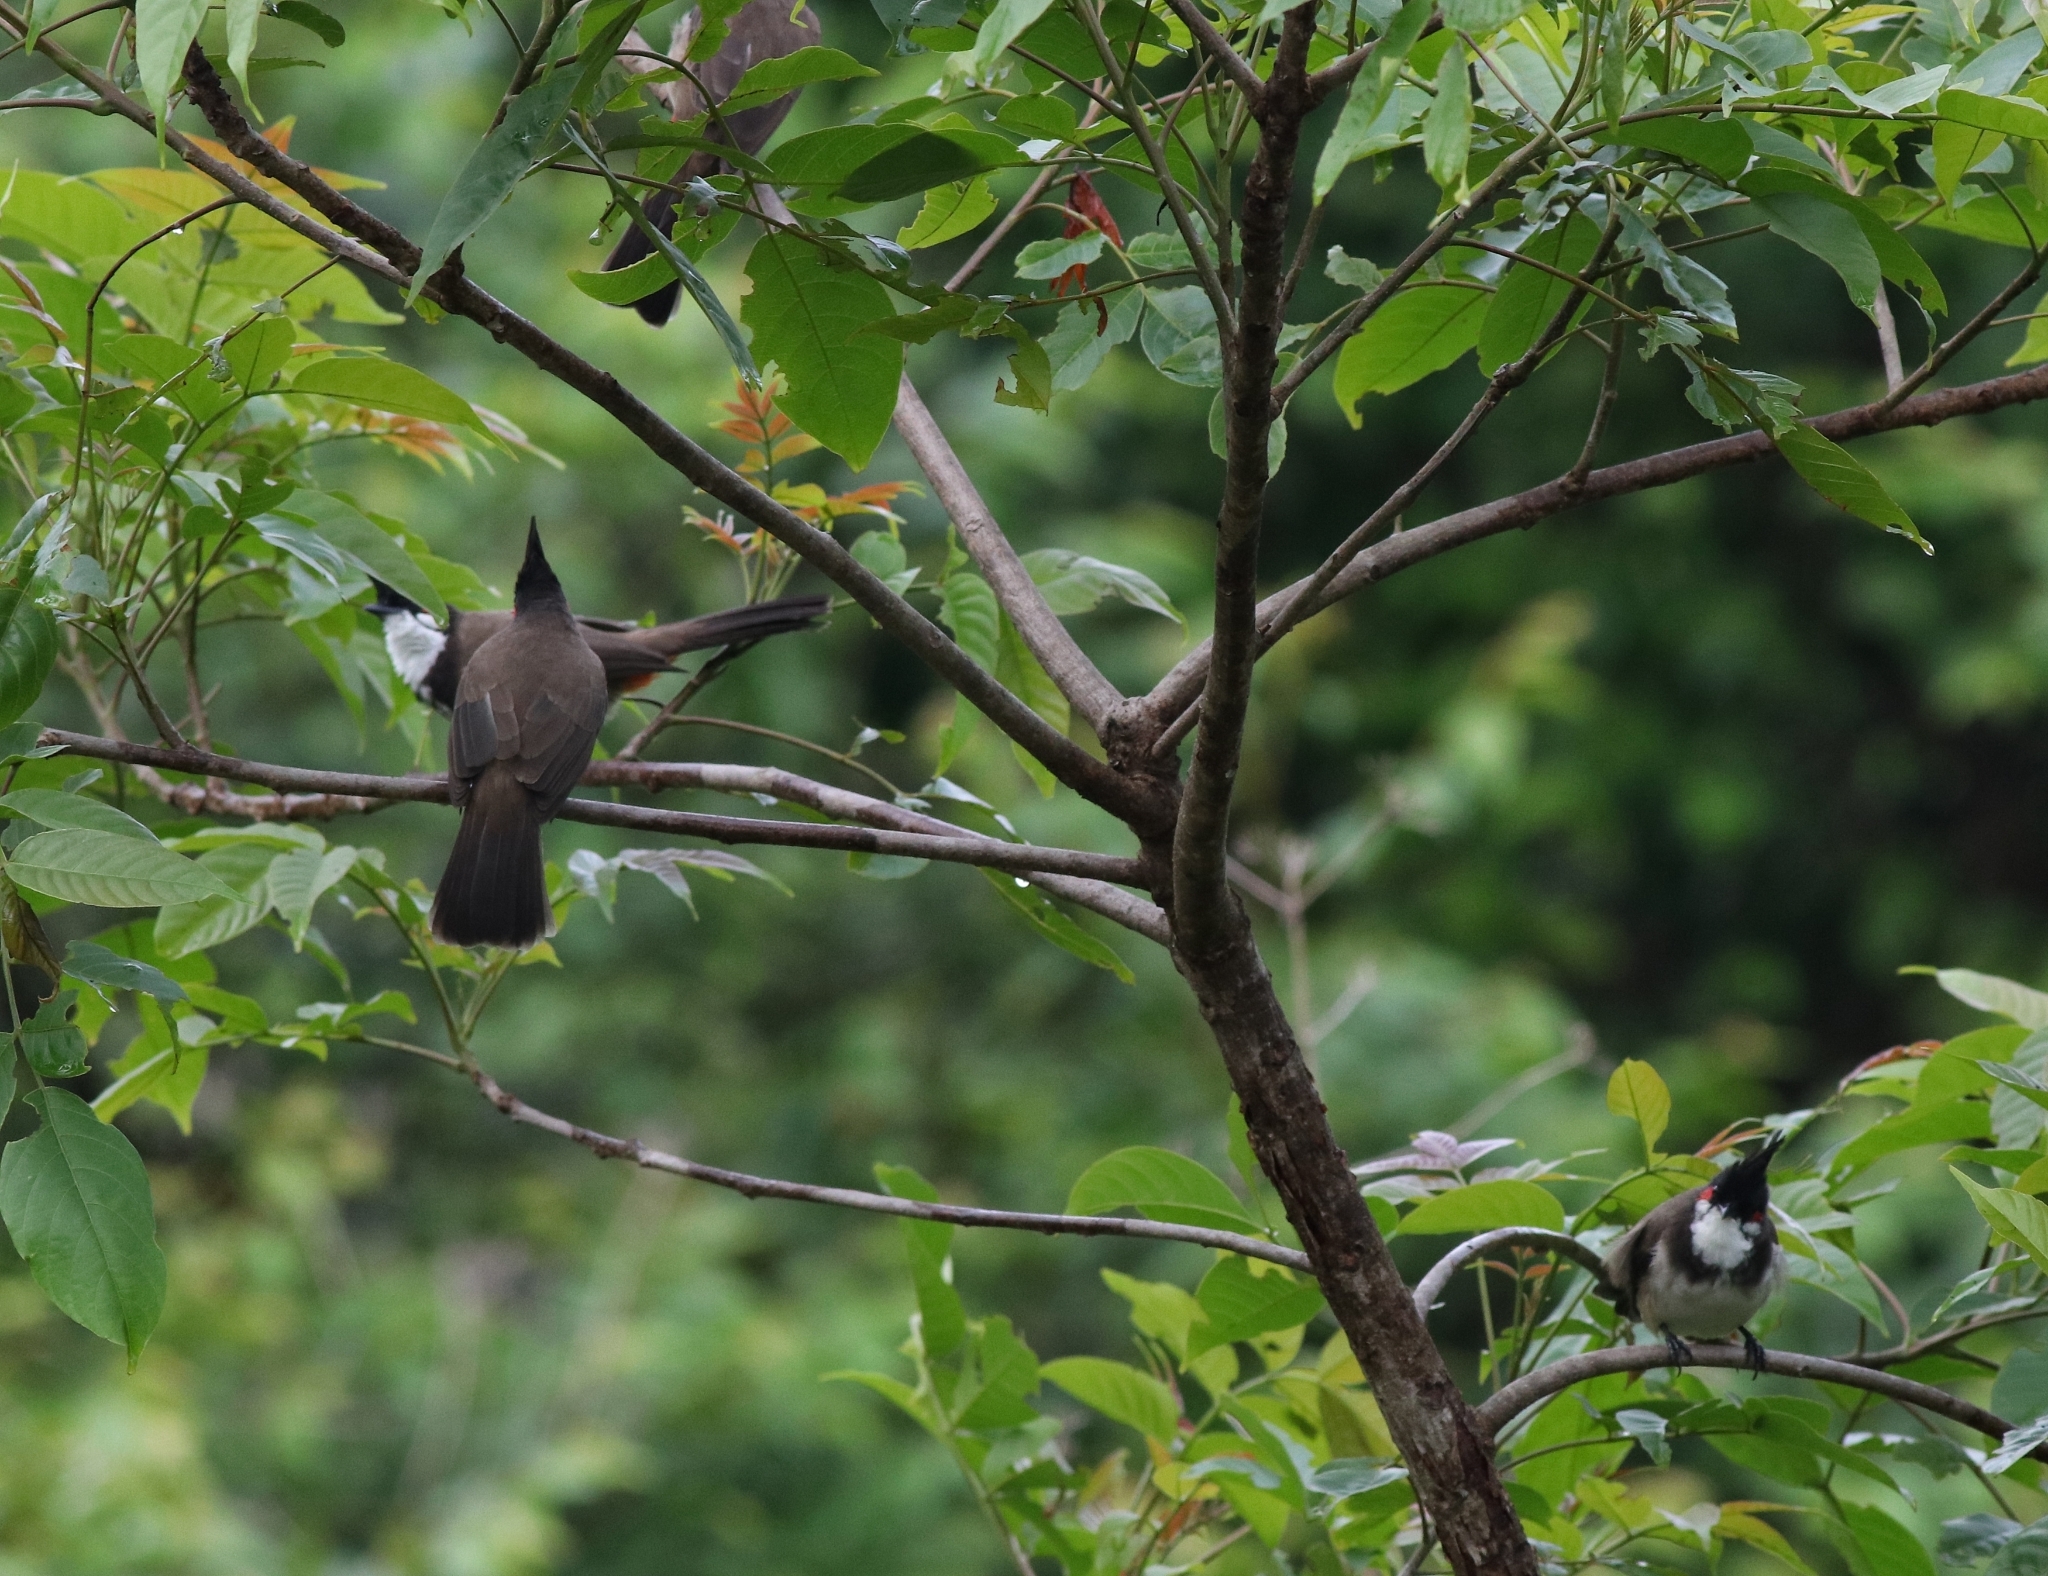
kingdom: Animalia
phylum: Chordata
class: Aves
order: Passeriformes
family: Pycnonotidae
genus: Pycnonotus
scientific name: Pycnonotus jocosus
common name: Red-whiskered bulbul
